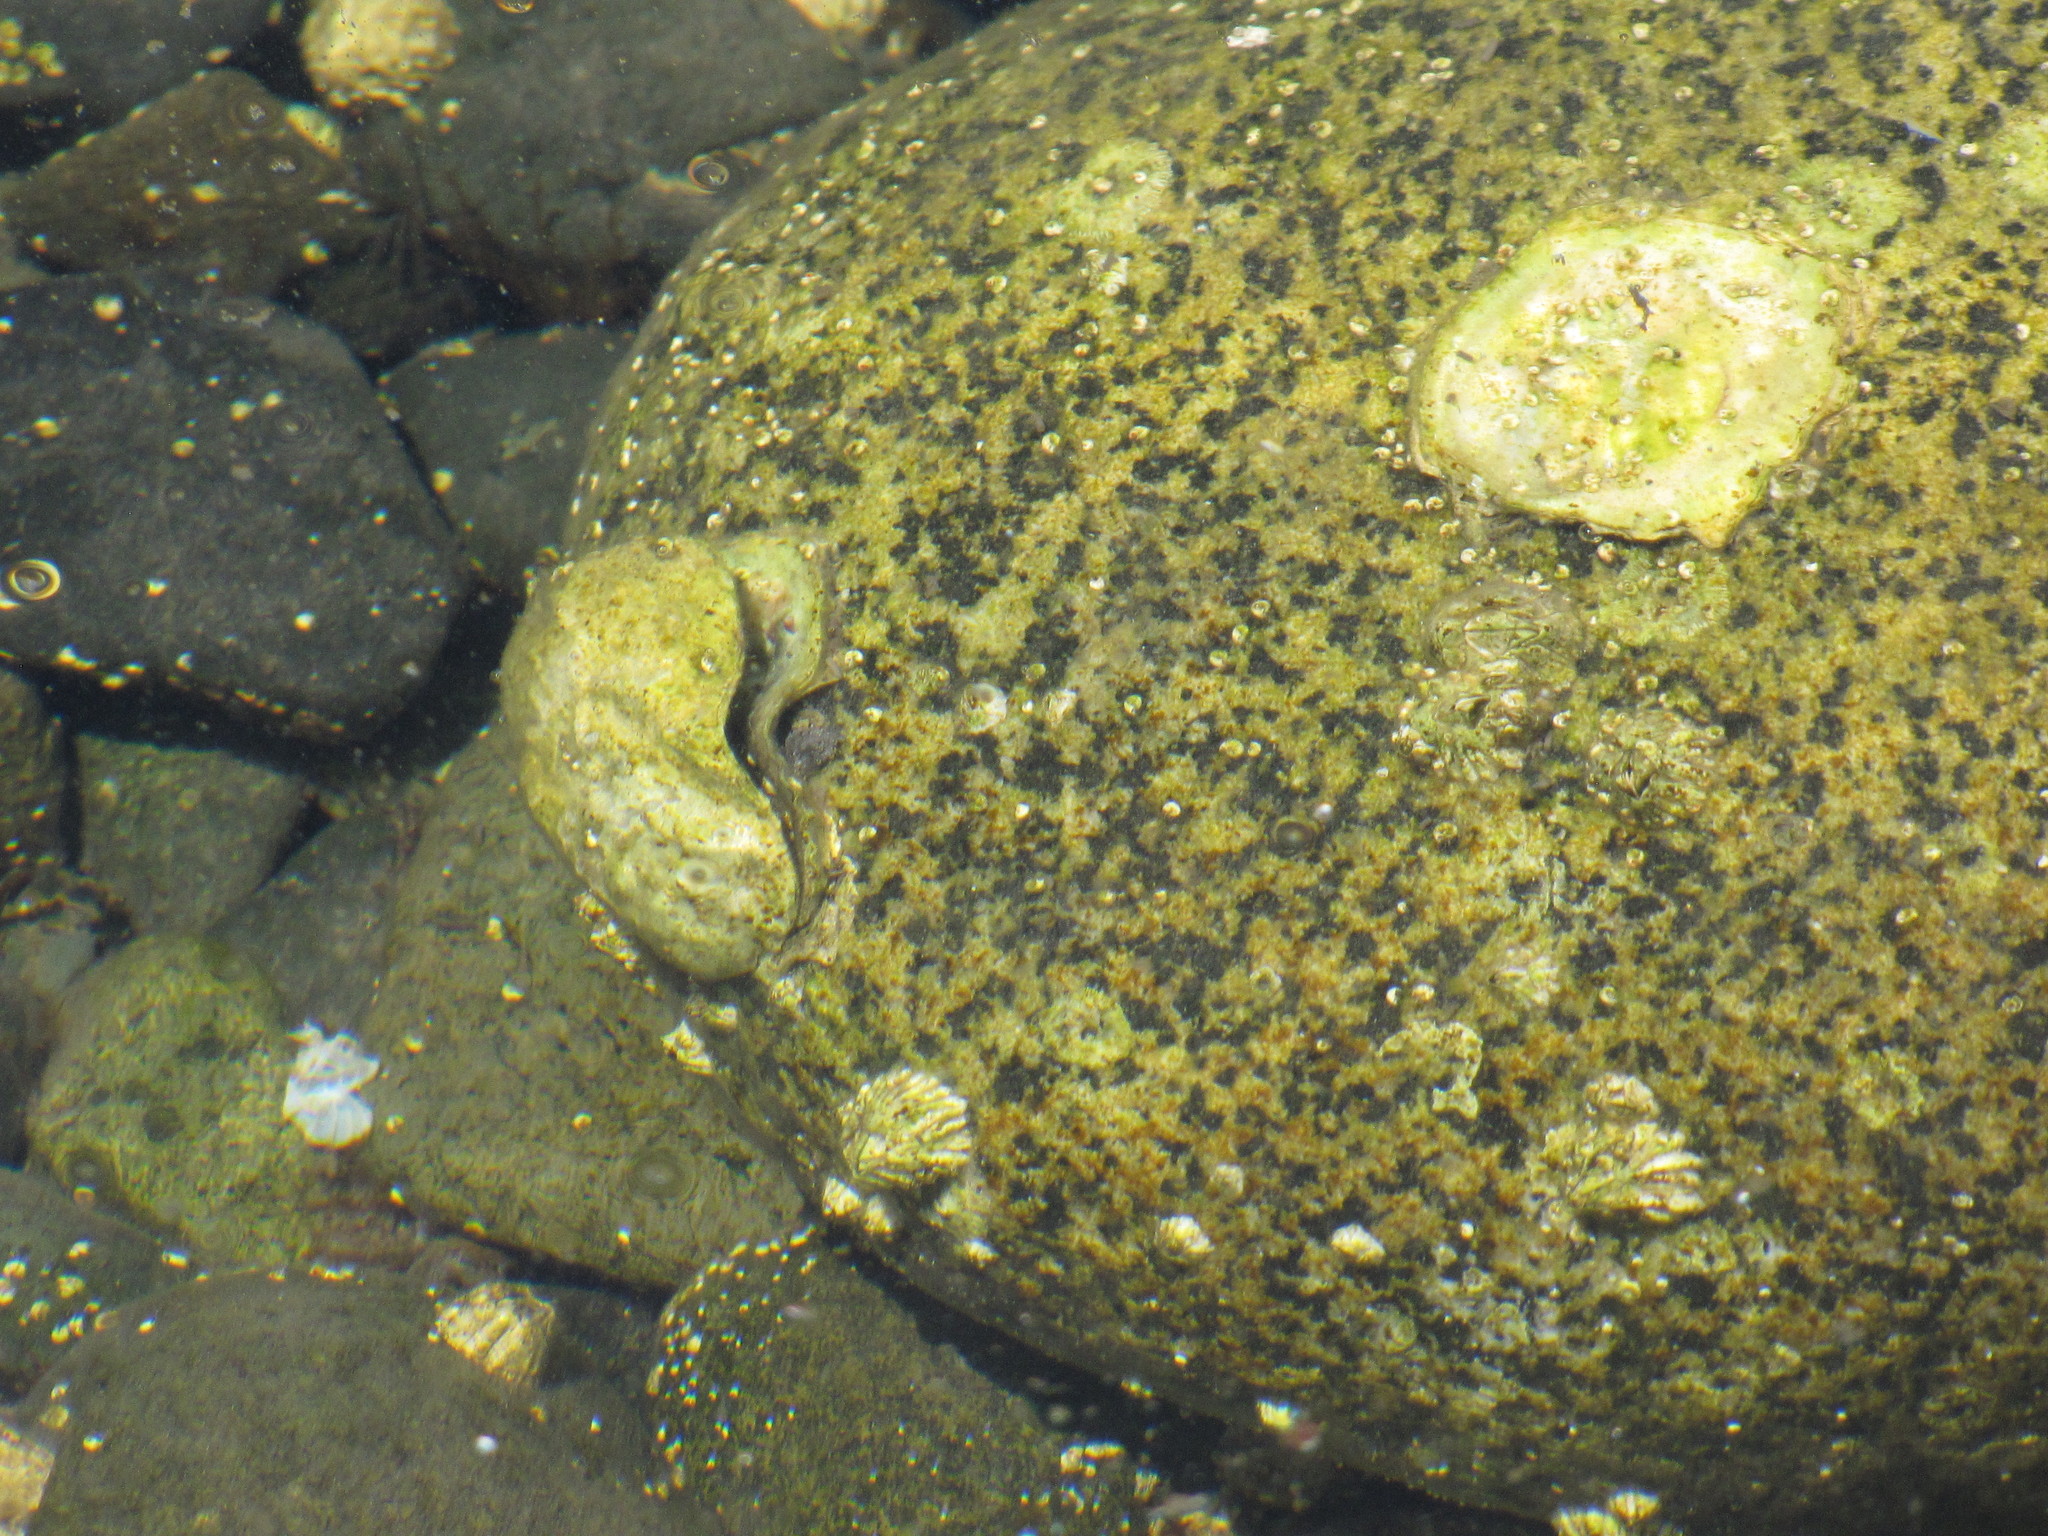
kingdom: Animalia
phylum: Mollusca
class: Bivalvia
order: Ostreida
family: Ostreidae
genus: Magallana
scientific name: Magallana gigas
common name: Pacific oyster
